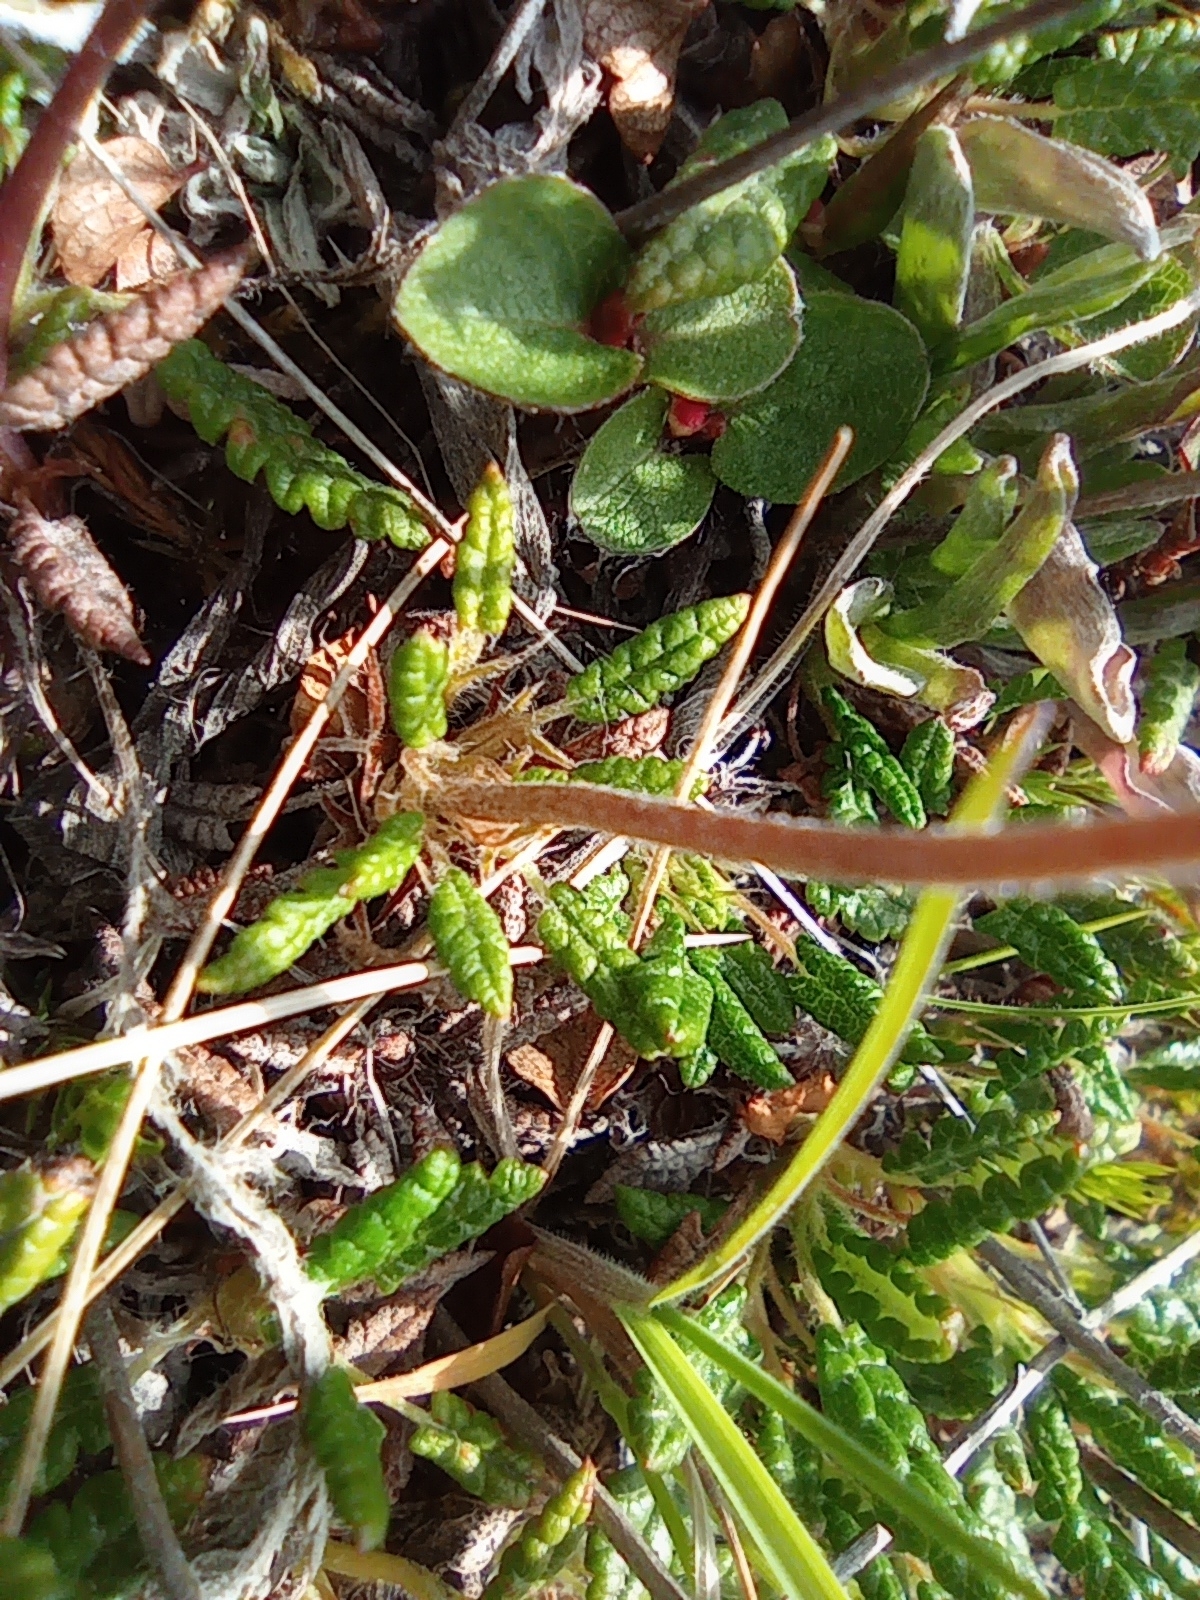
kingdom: Plantae
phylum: Tracheophyta
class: Magnoliopsida
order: Rosales
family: Rosaceae
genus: Dryas
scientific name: Dryas octopetala
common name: Eight-petal mountain-avens
